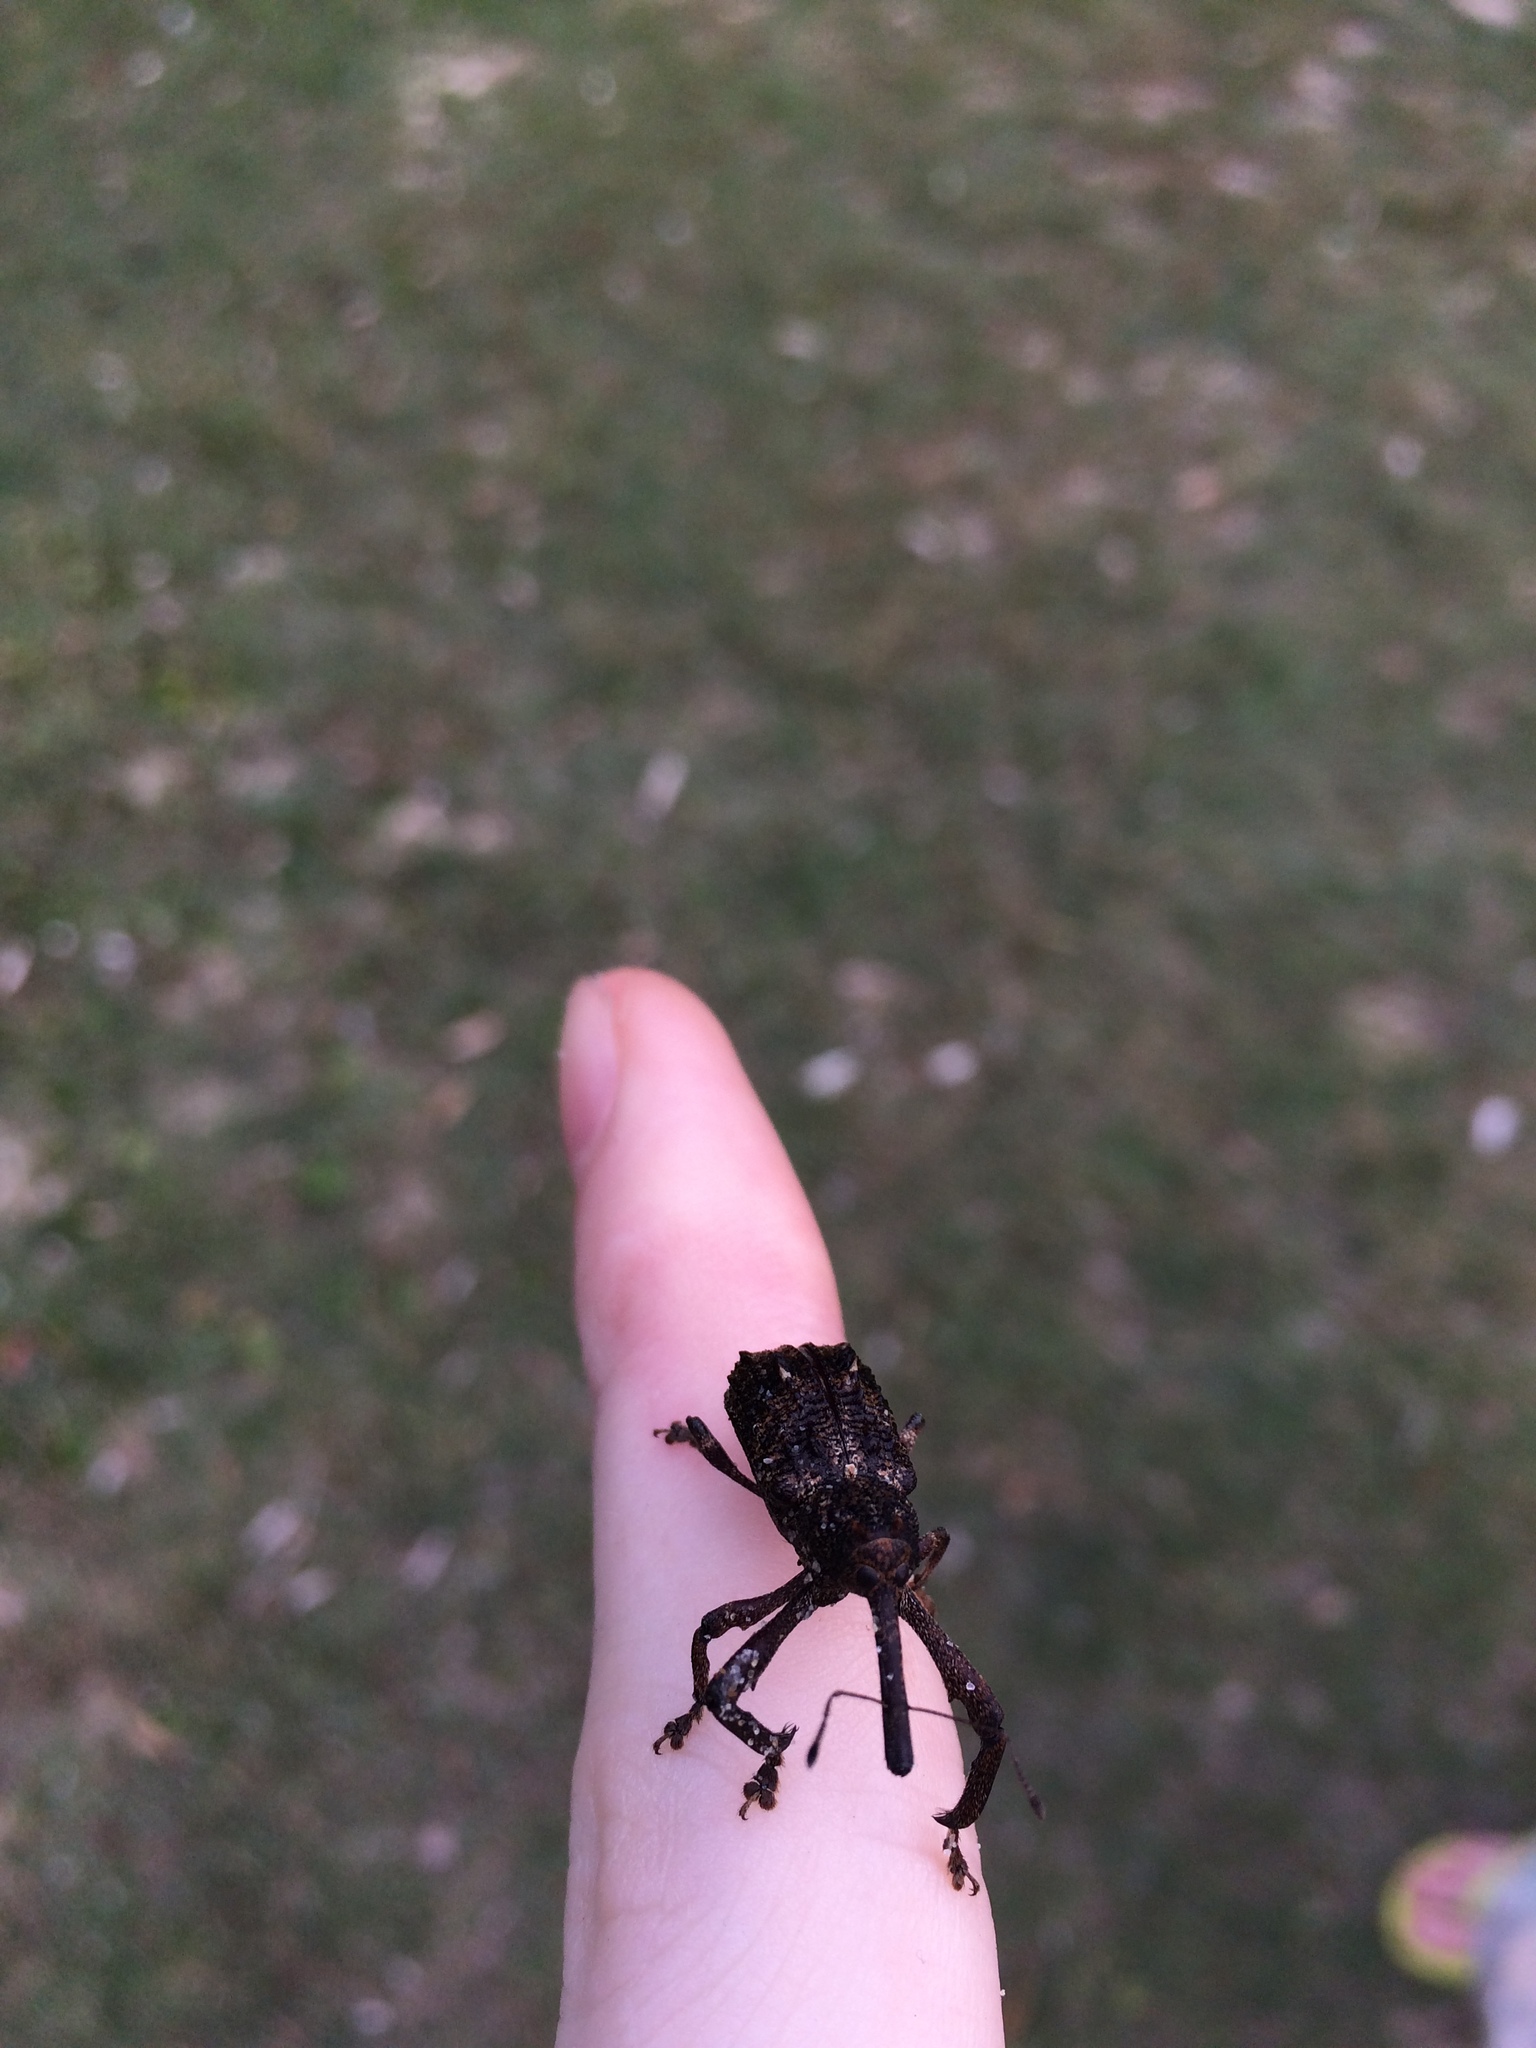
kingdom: Animalia
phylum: Arthropoda
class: Insecta
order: Coleoptera
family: Curculionidae
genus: Orthorhinus
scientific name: Orthorhinus cylindrirostris
